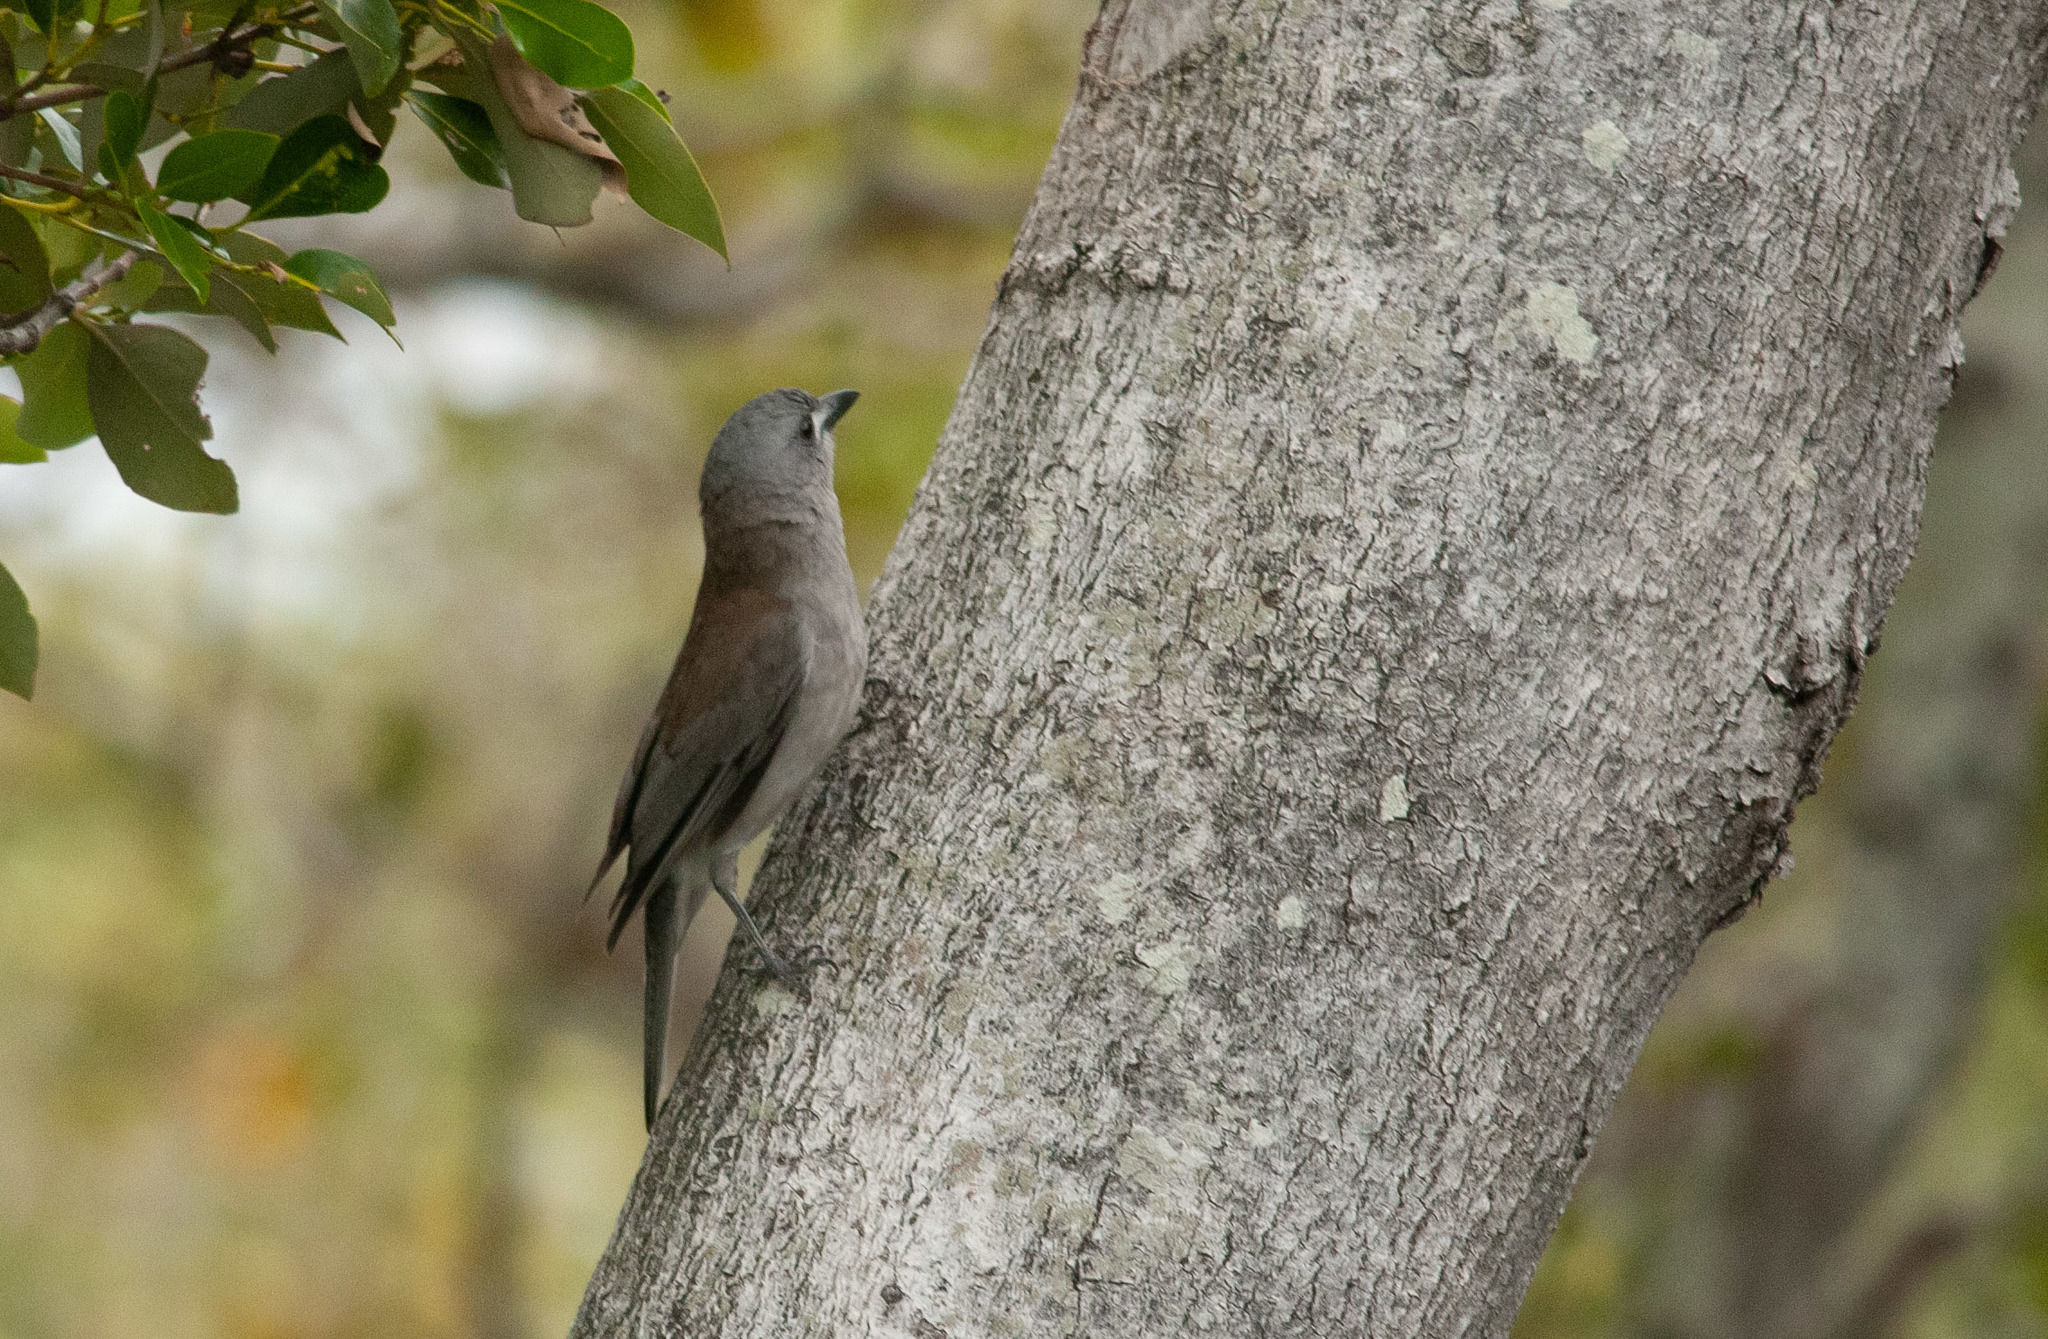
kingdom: Animalia
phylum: Chordata
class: Aves
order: Passeriformes
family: Pachycephalidae
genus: Colluricincla
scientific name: Colluricincla harmonica
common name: Grey shrikethrush
